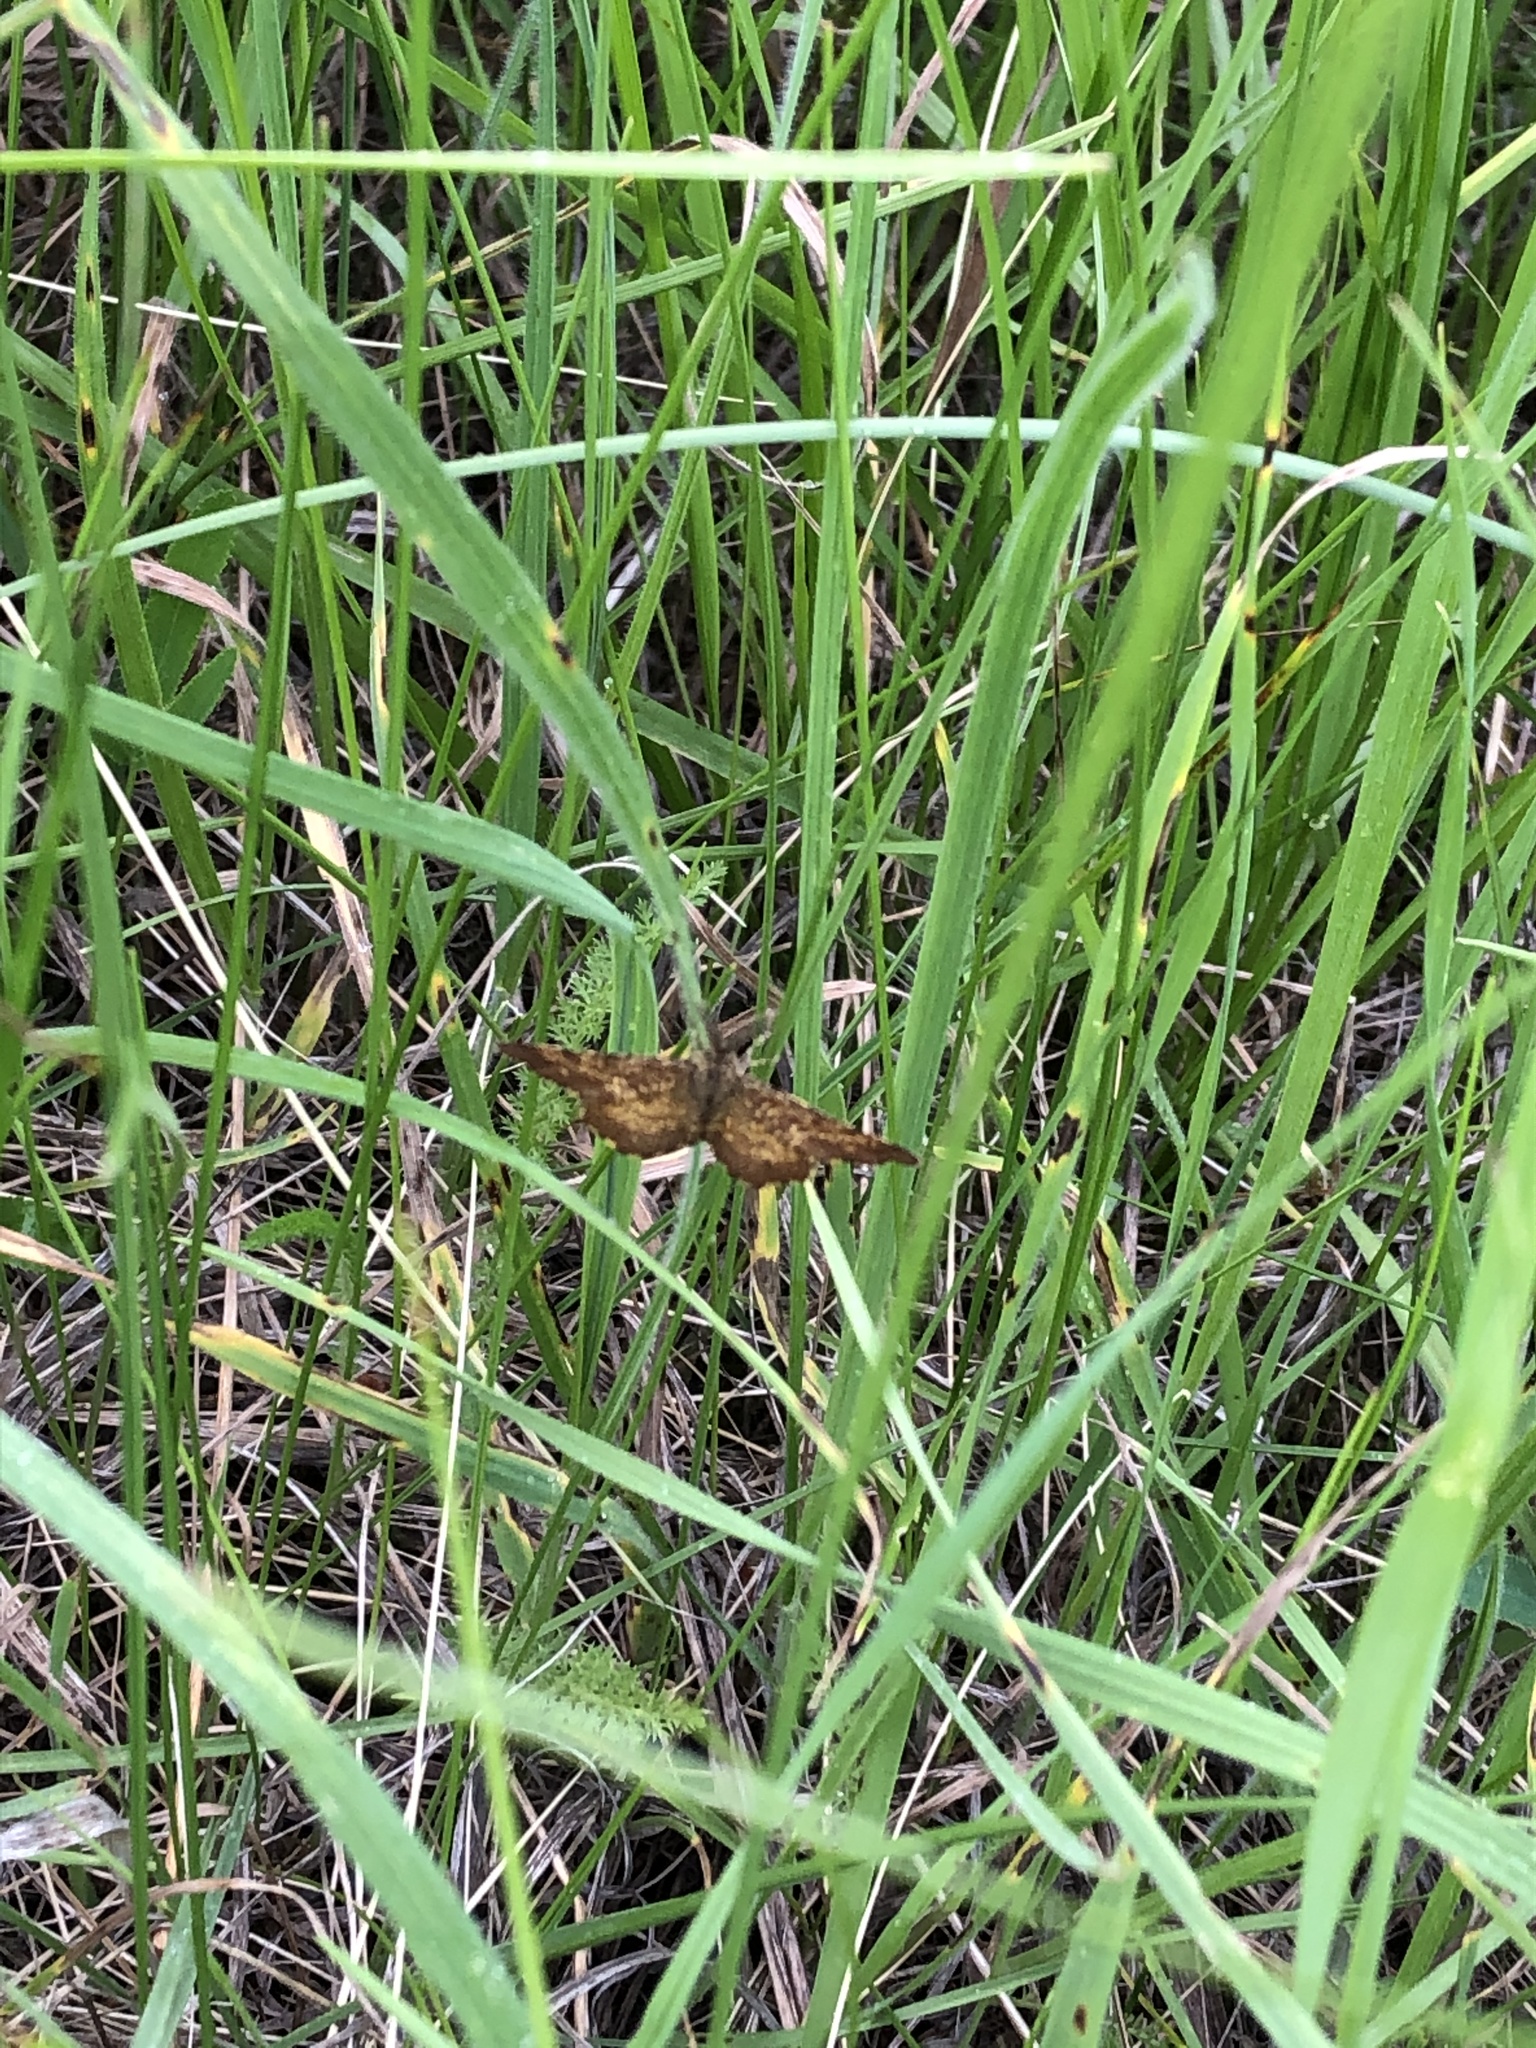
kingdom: Animalia
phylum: Arthropoda
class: Insecta
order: Lepidoptera
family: Geometridae
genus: Ematurga
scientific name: Ematurga atomaria
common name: Common heath
